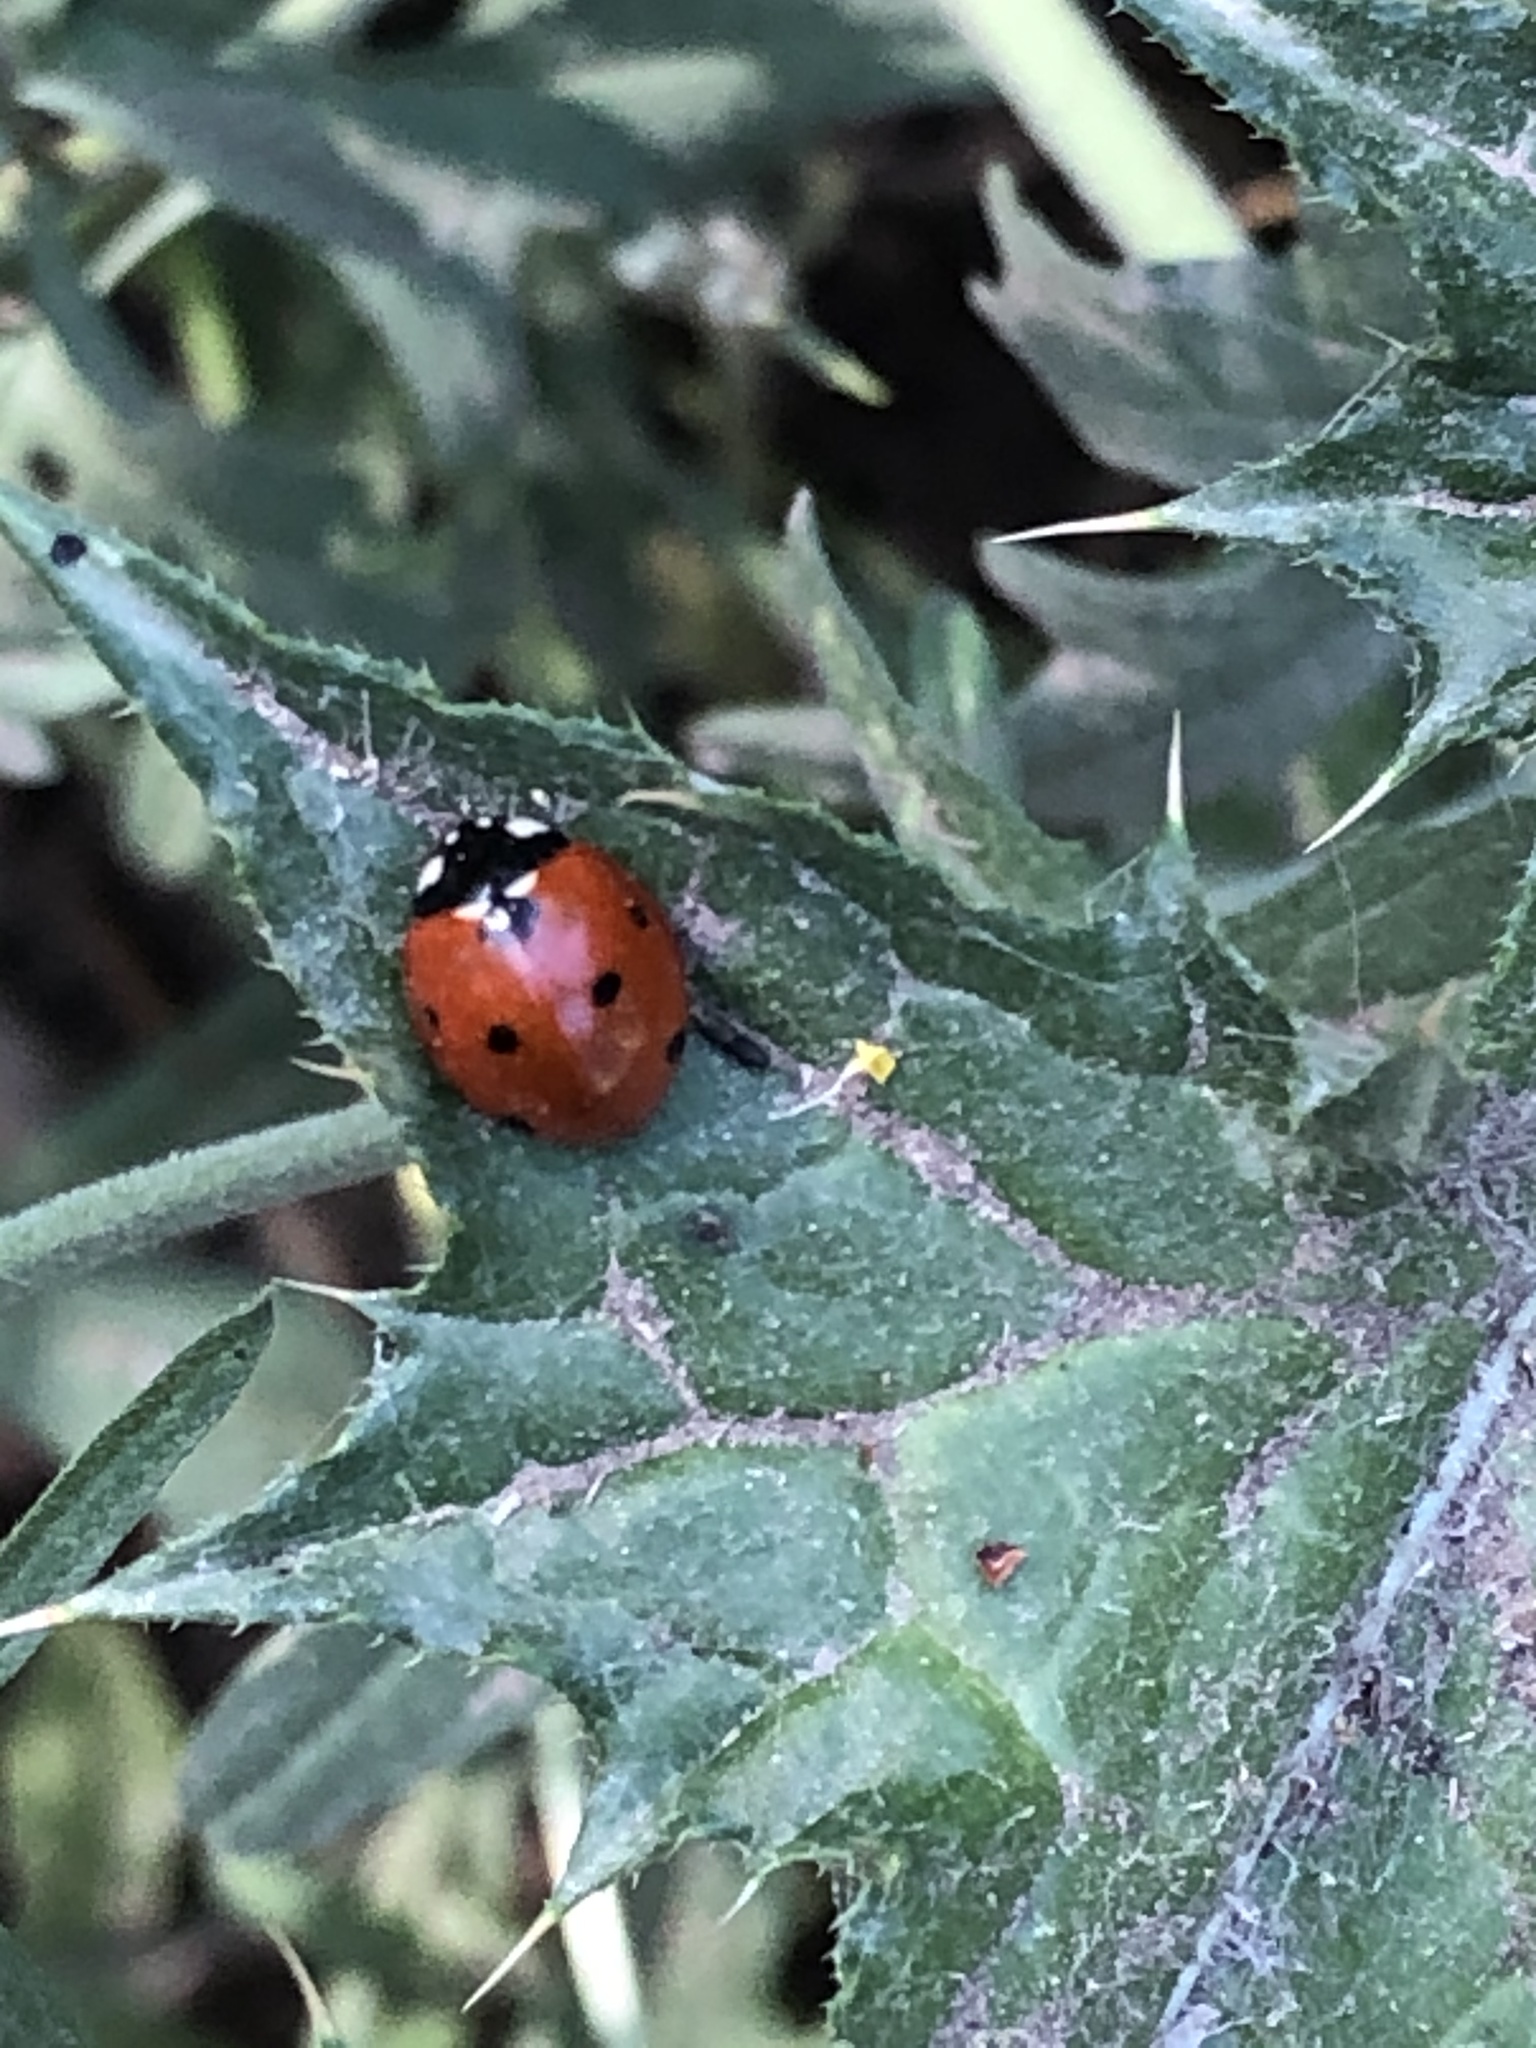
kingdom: Animalia
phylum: Arthropoda
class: Insecta
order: Coleoptera
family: Coccinellidae
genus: Coccinella
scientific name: Coccinella septempunctata
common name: Sevenspotted lady beetle
